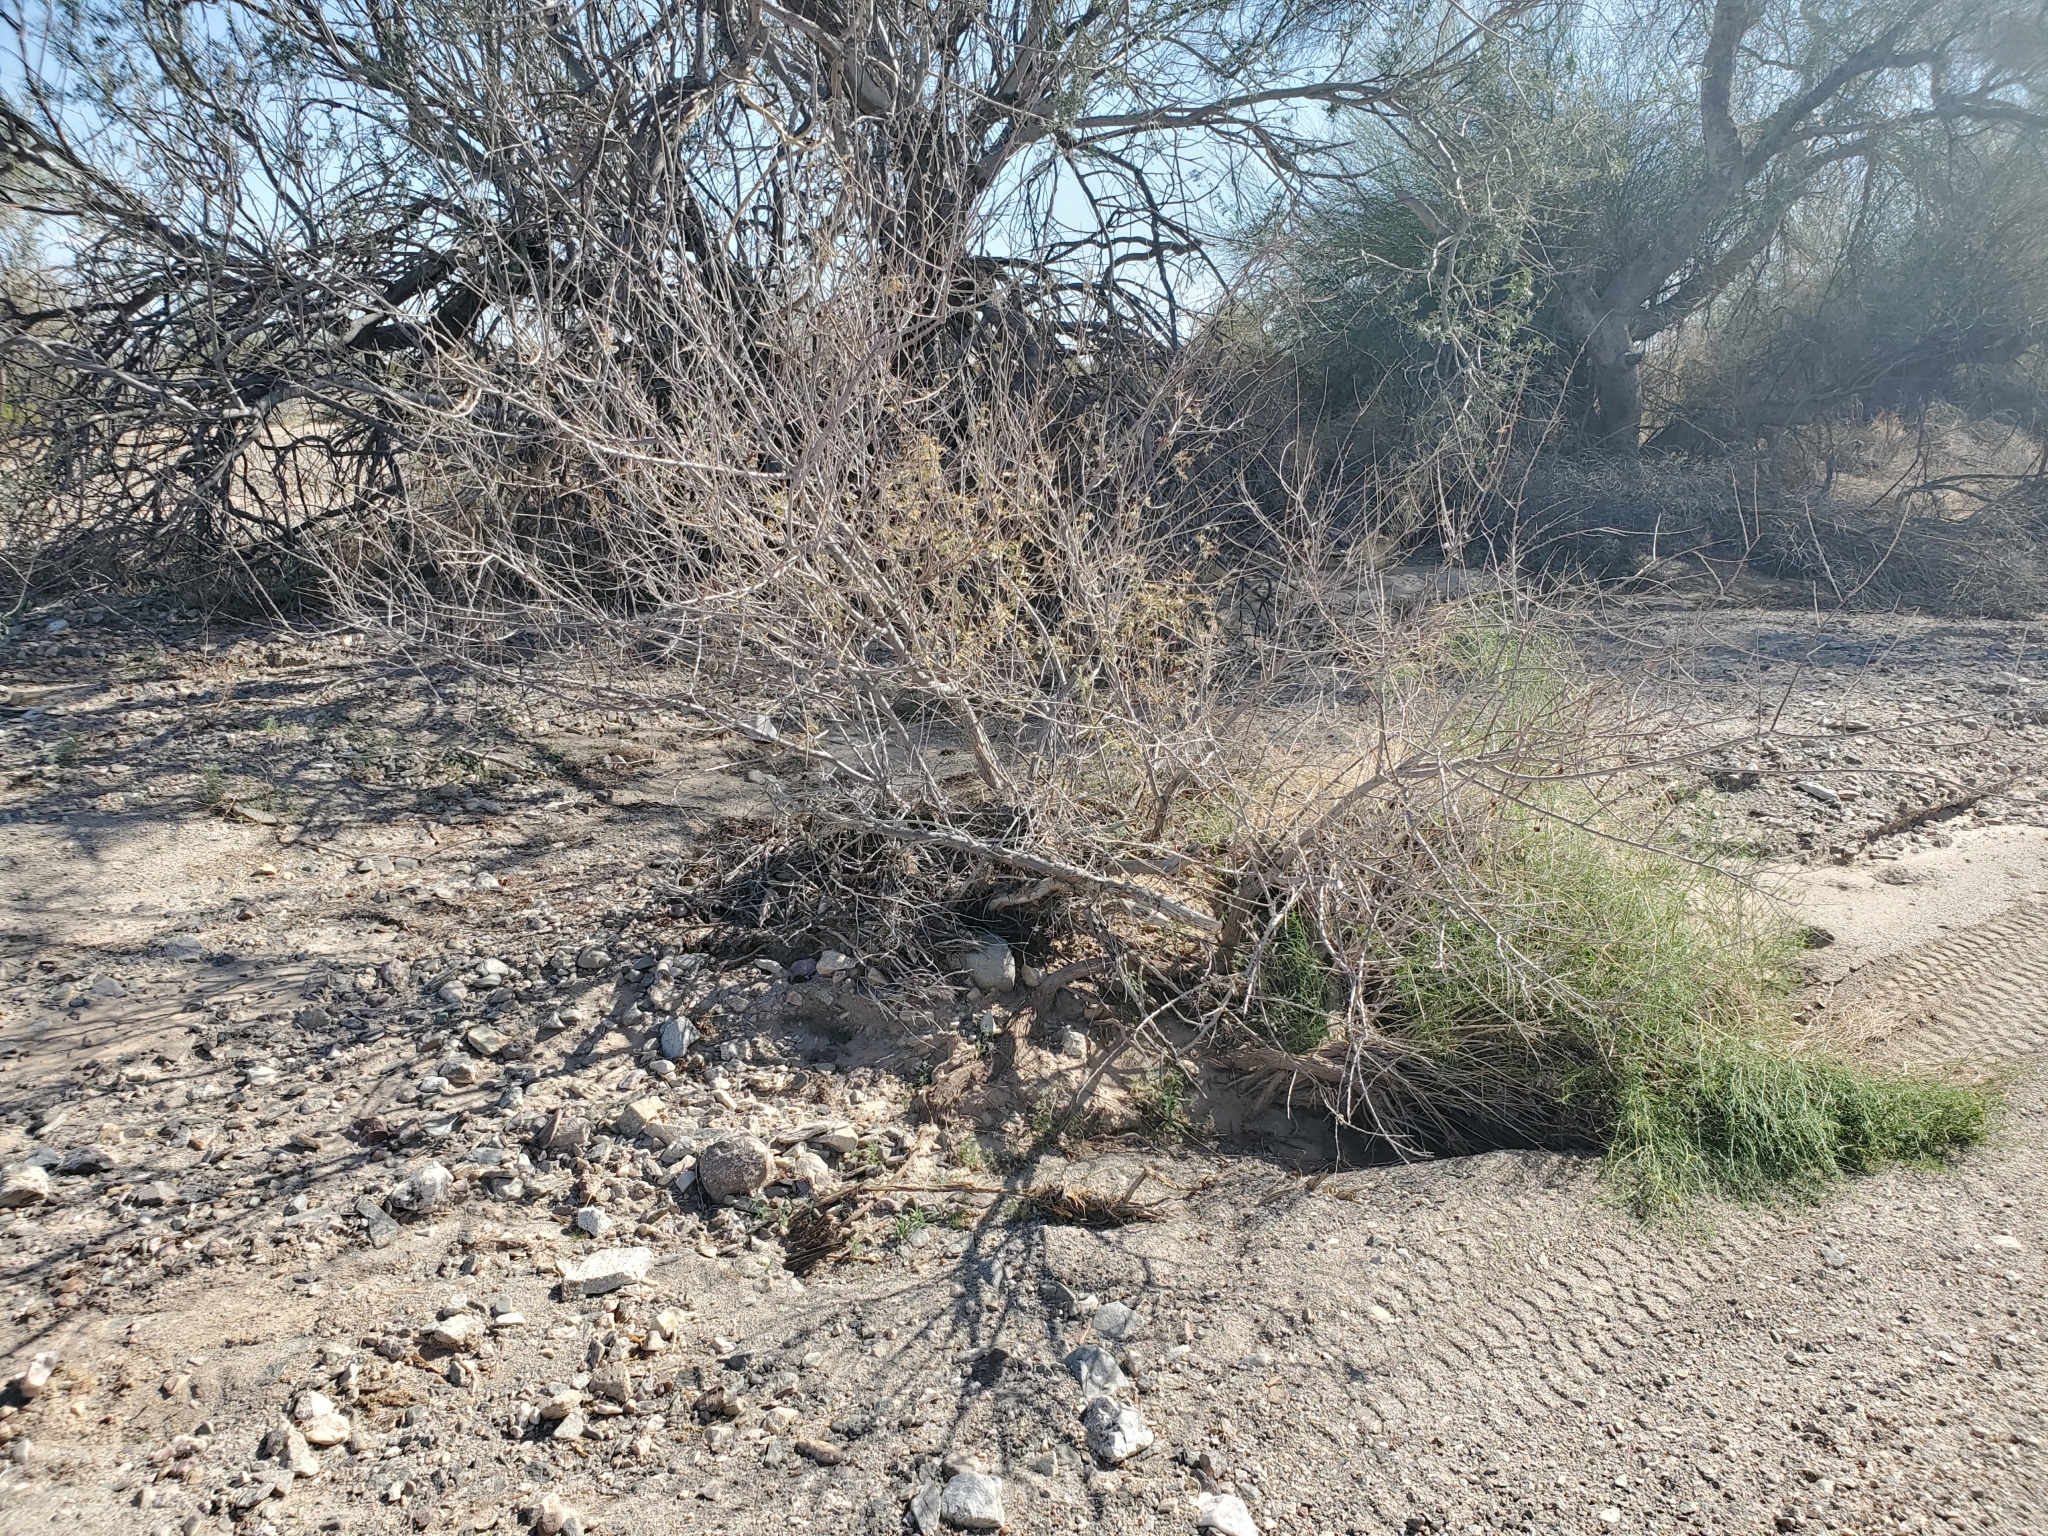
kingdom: Plantae
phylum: Tracheophyta
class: Magnoliopsida
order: Fabales
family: Fabaceae
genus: Senegalia
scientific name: Senegalia greggii
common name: Texas-mimosa
